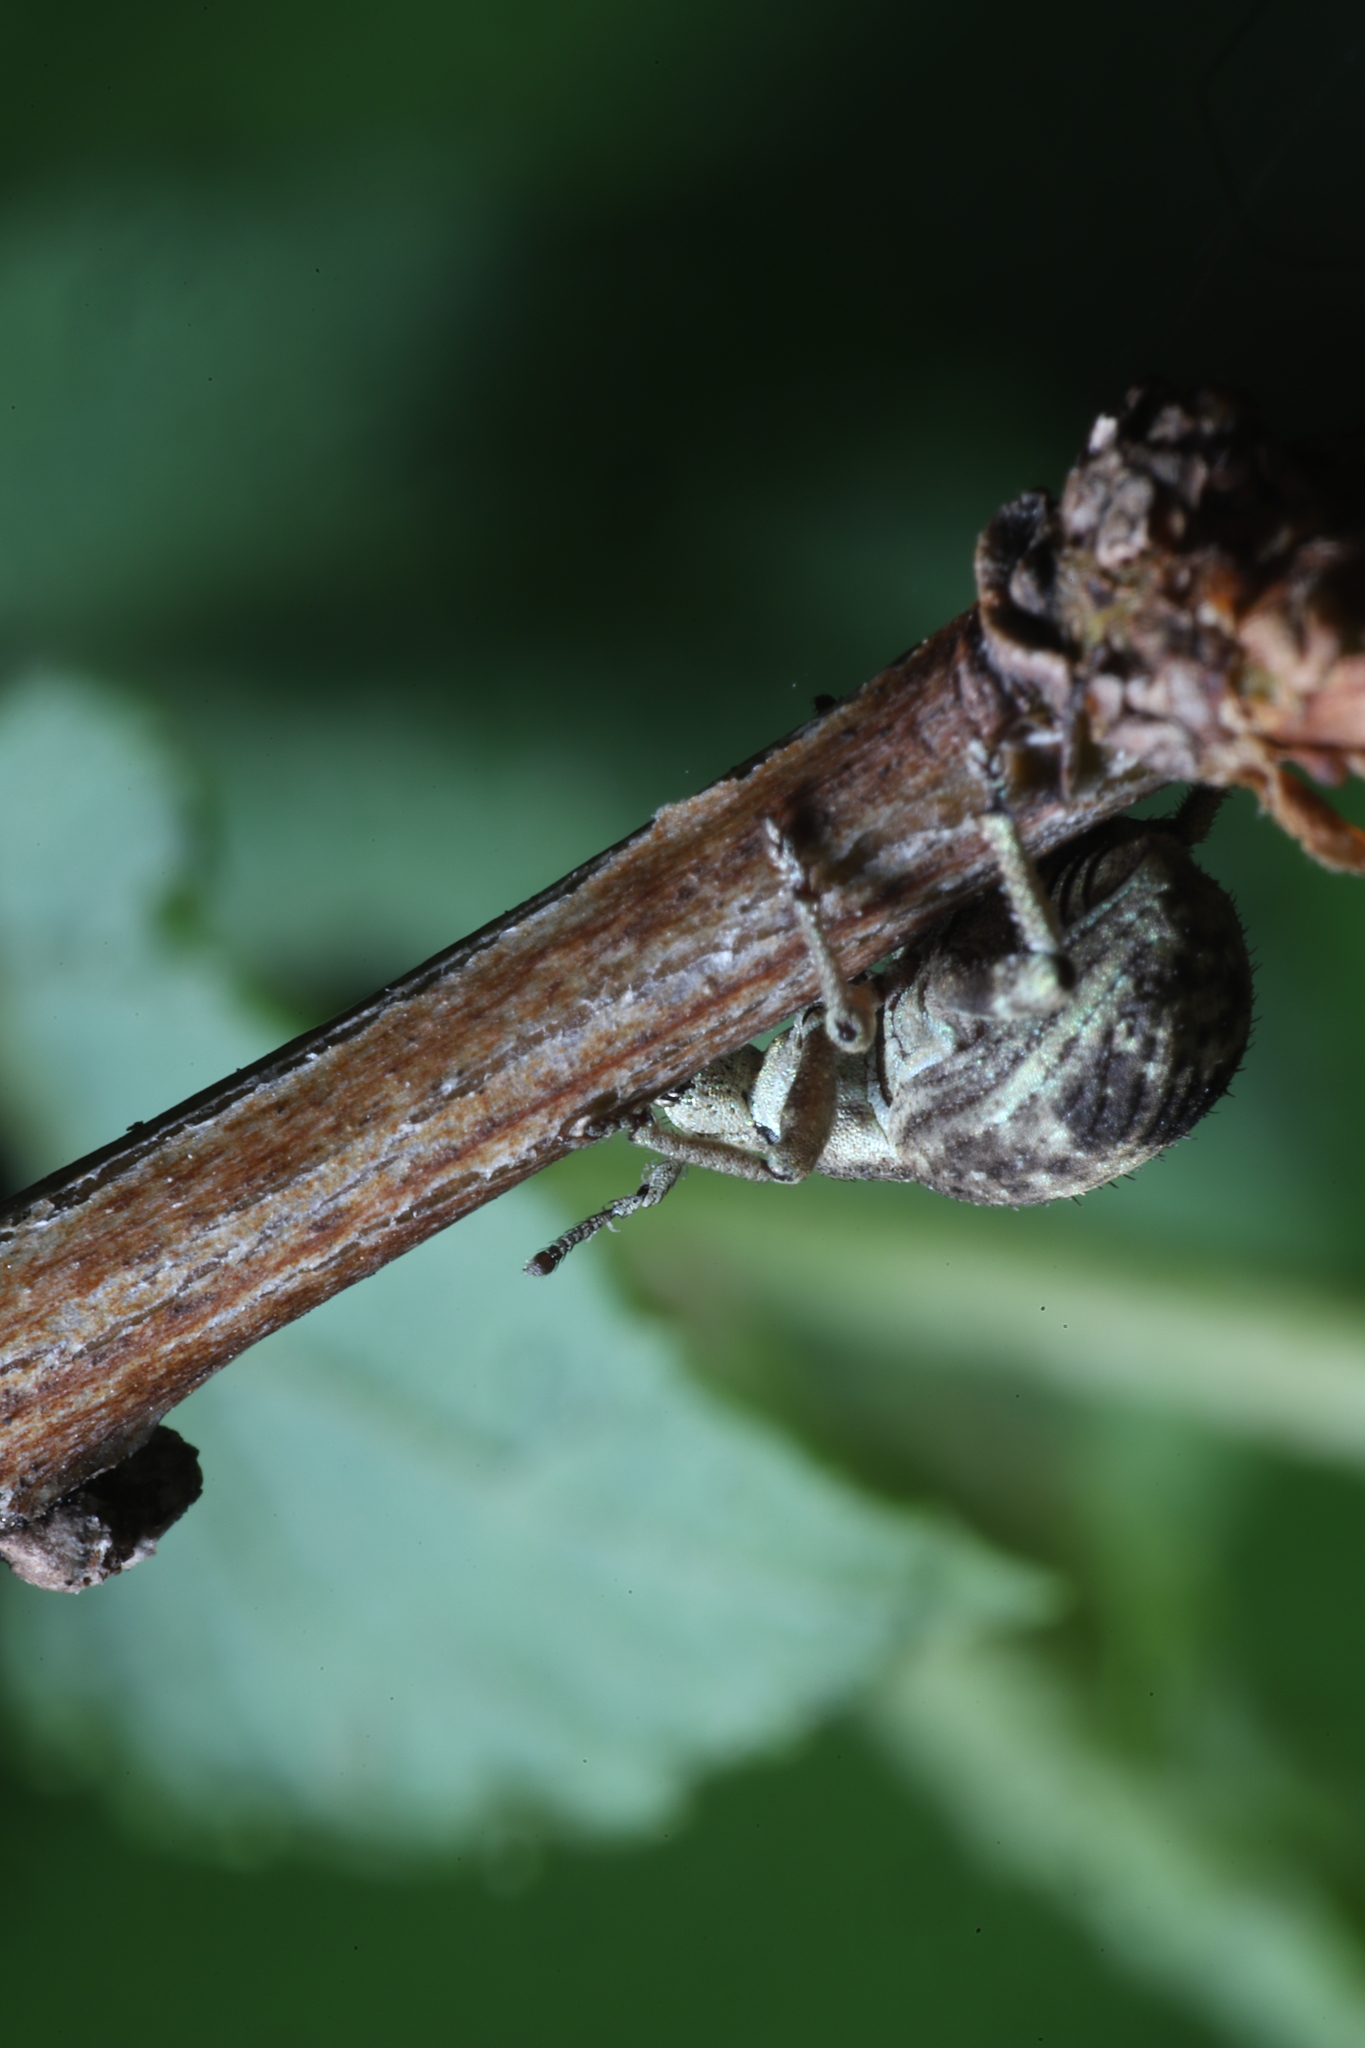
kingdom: Animalia
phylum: Arthropoda
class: Insecta
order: Coleoptera
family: Curculionidae
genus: Pseudocneorhinus
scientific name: Pseudocneorhinus bifasciatus
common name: Two-banded japanese weevil
